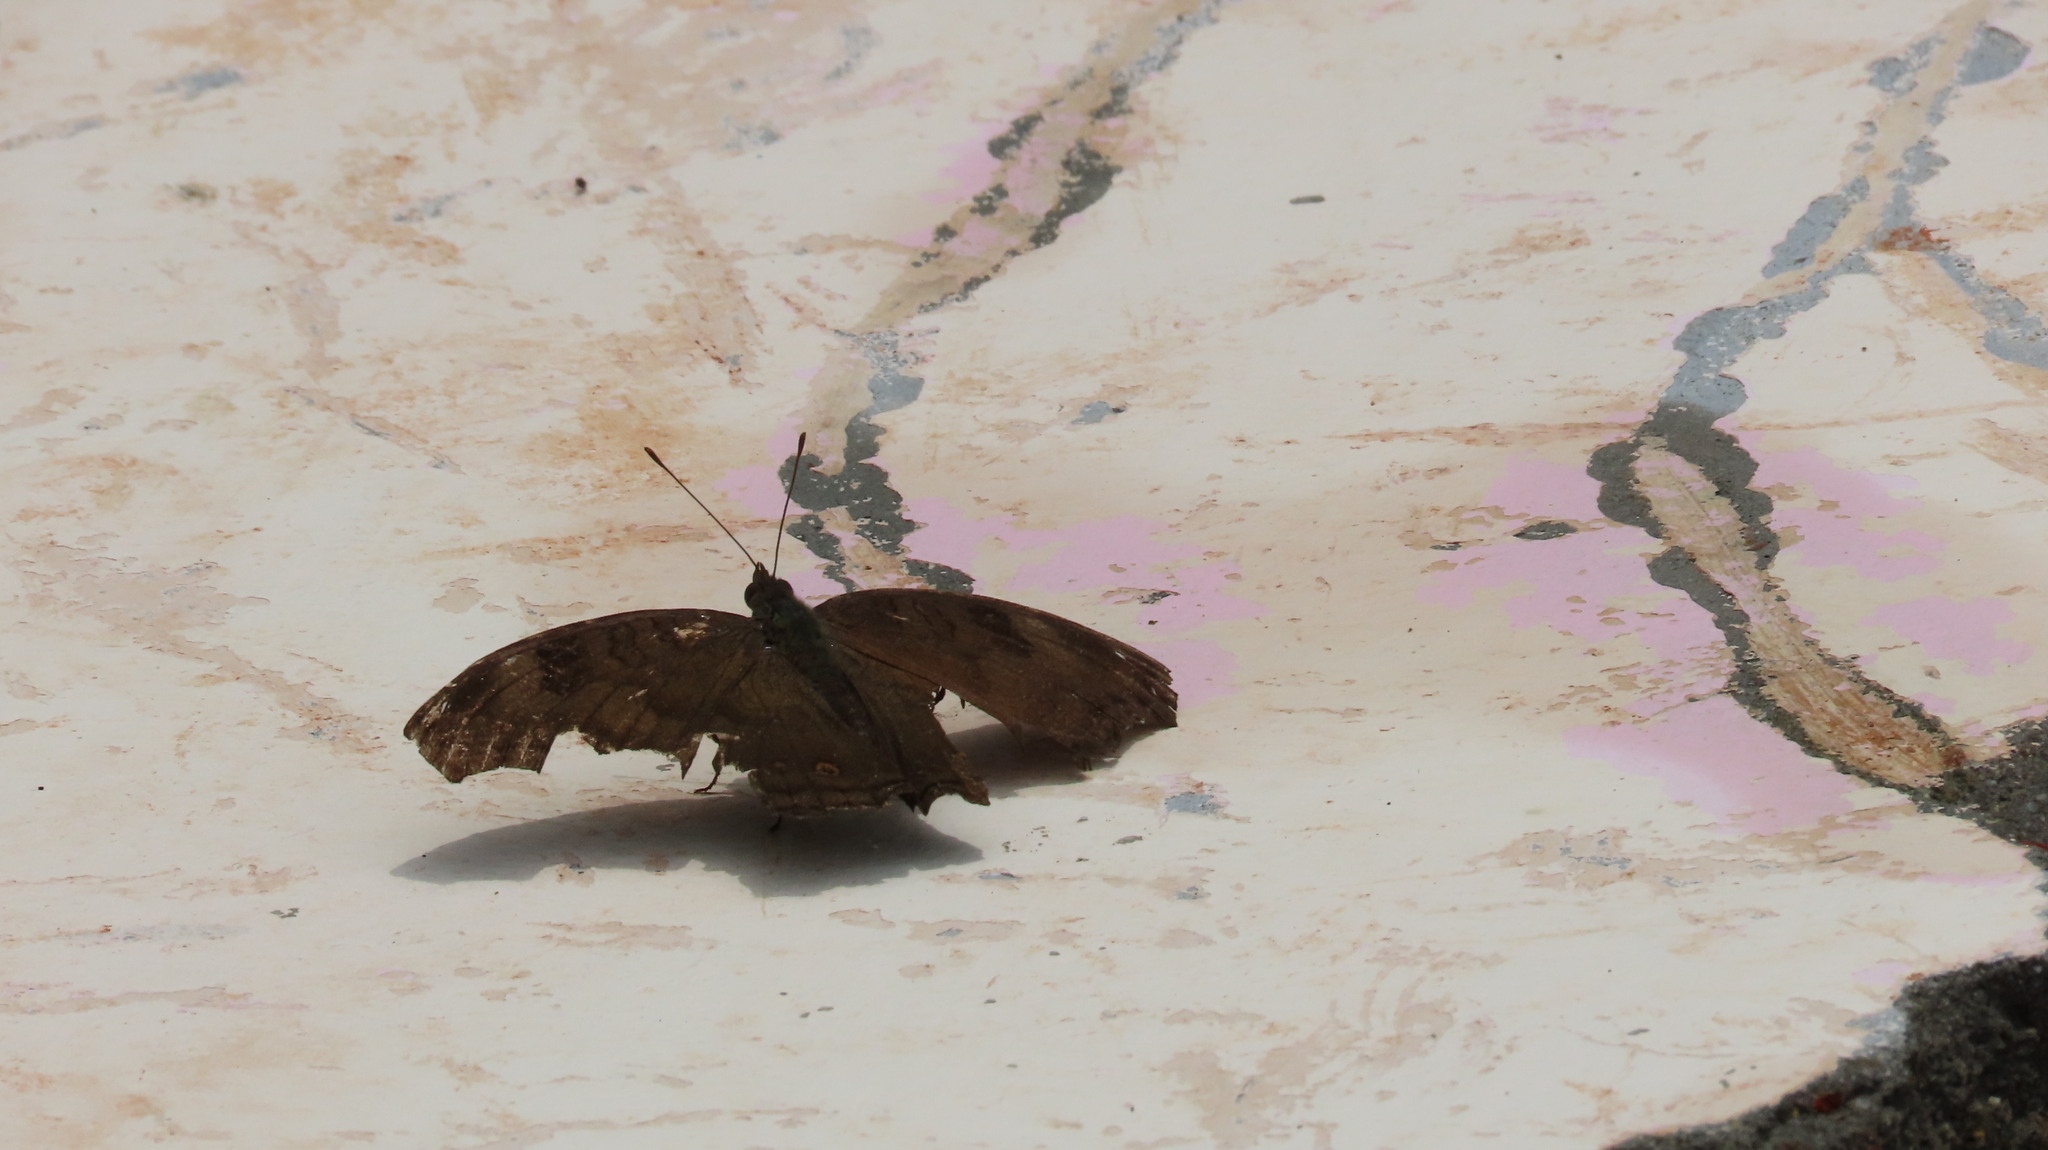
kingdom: Animalia
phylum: Arthropoda
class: Insecta
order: Lepidoptera
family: Nymphalidae
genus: Junonia
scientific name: Junonia iphita
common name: Chocolate pansy
